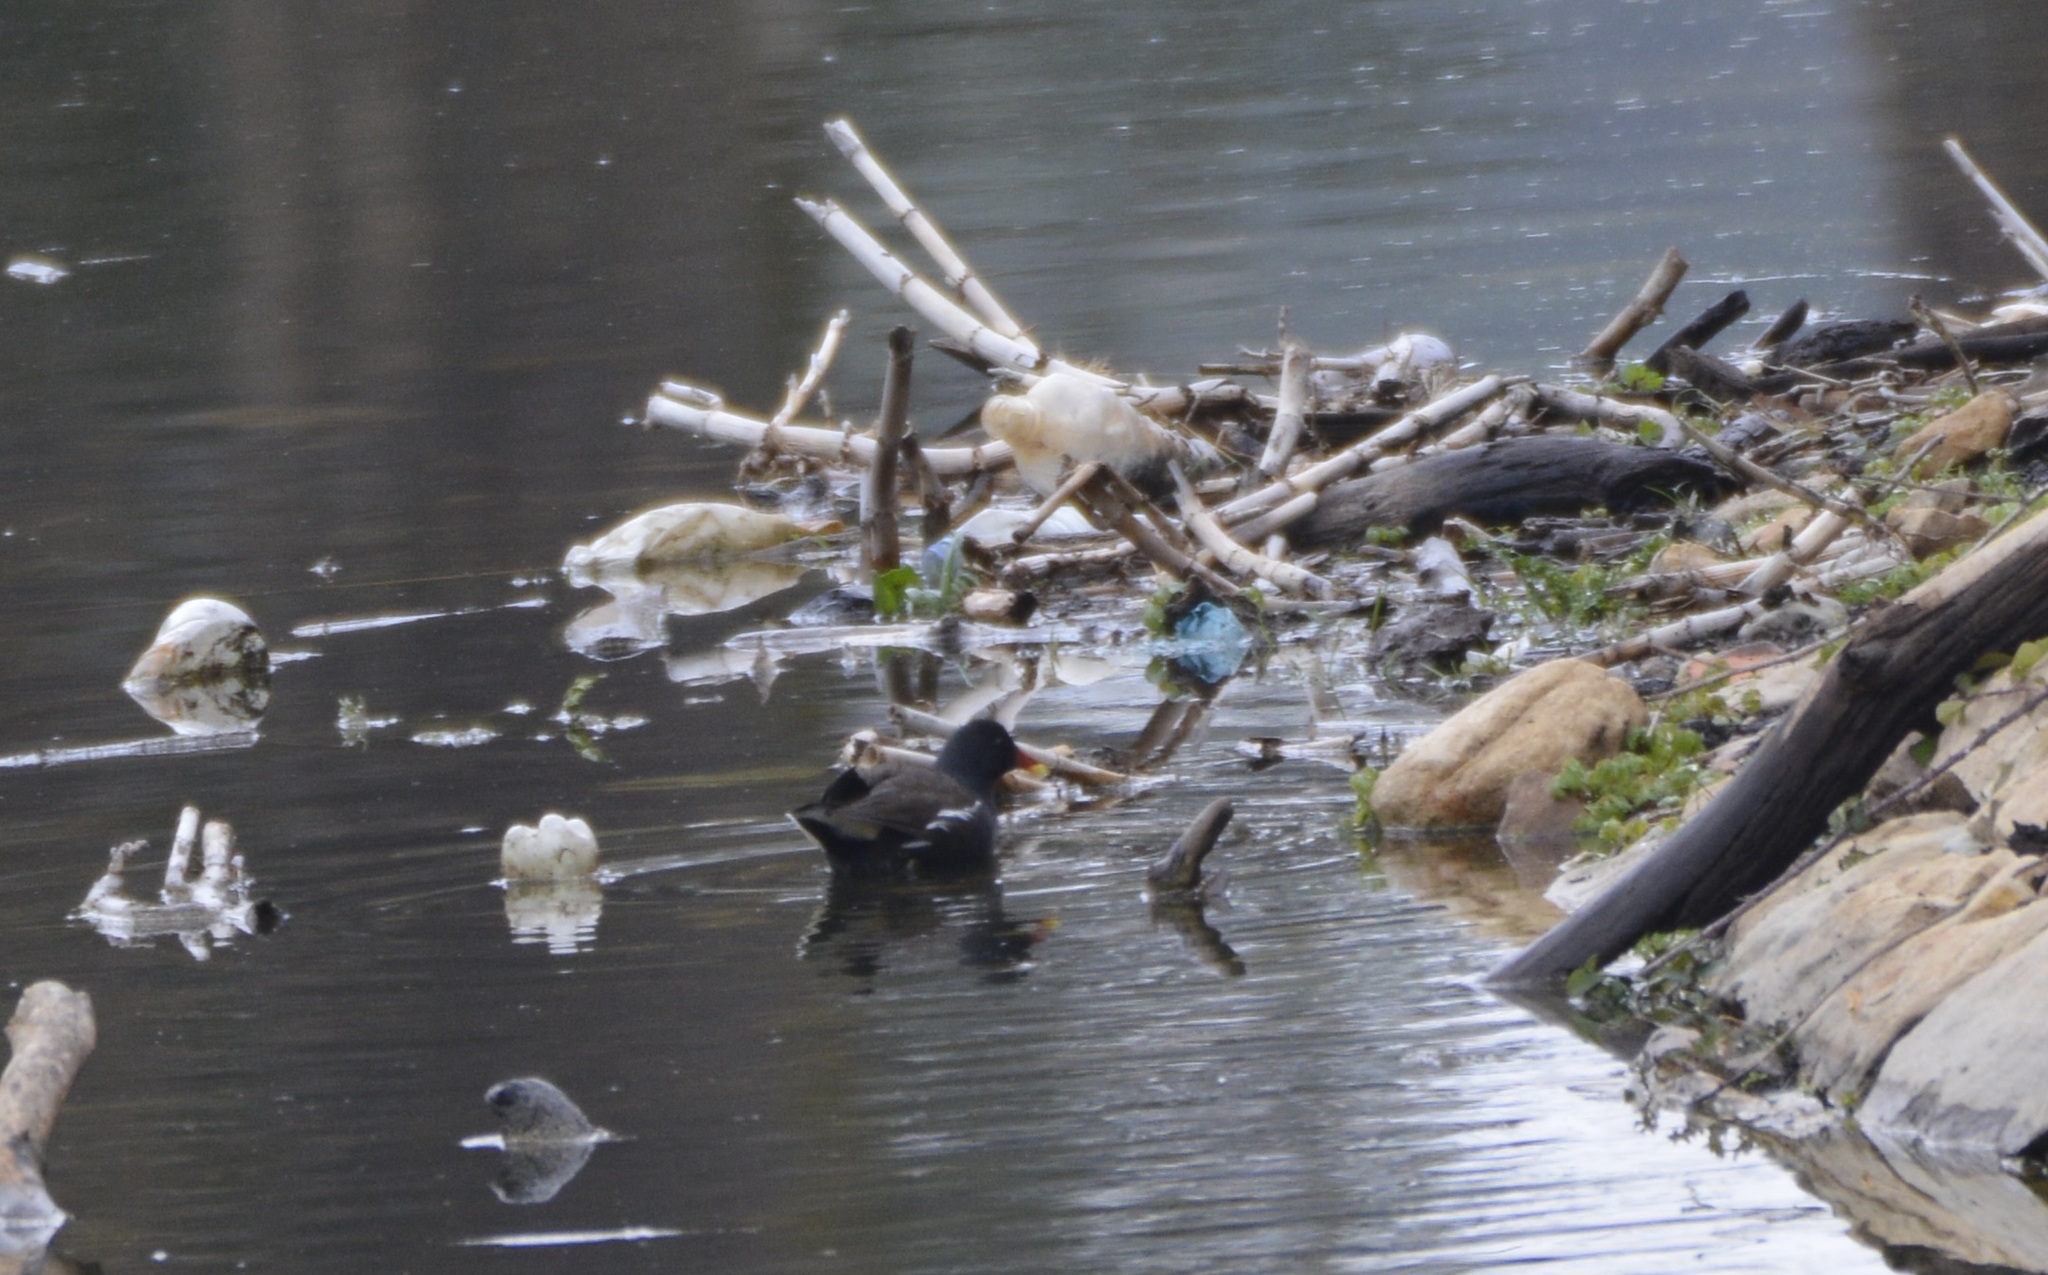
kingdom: Animalia
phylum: Chordata
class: Aves
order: Gruiformes
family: Rallidae
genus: Gallinula
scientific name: Gallinula chloropus
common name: Common moorhen
